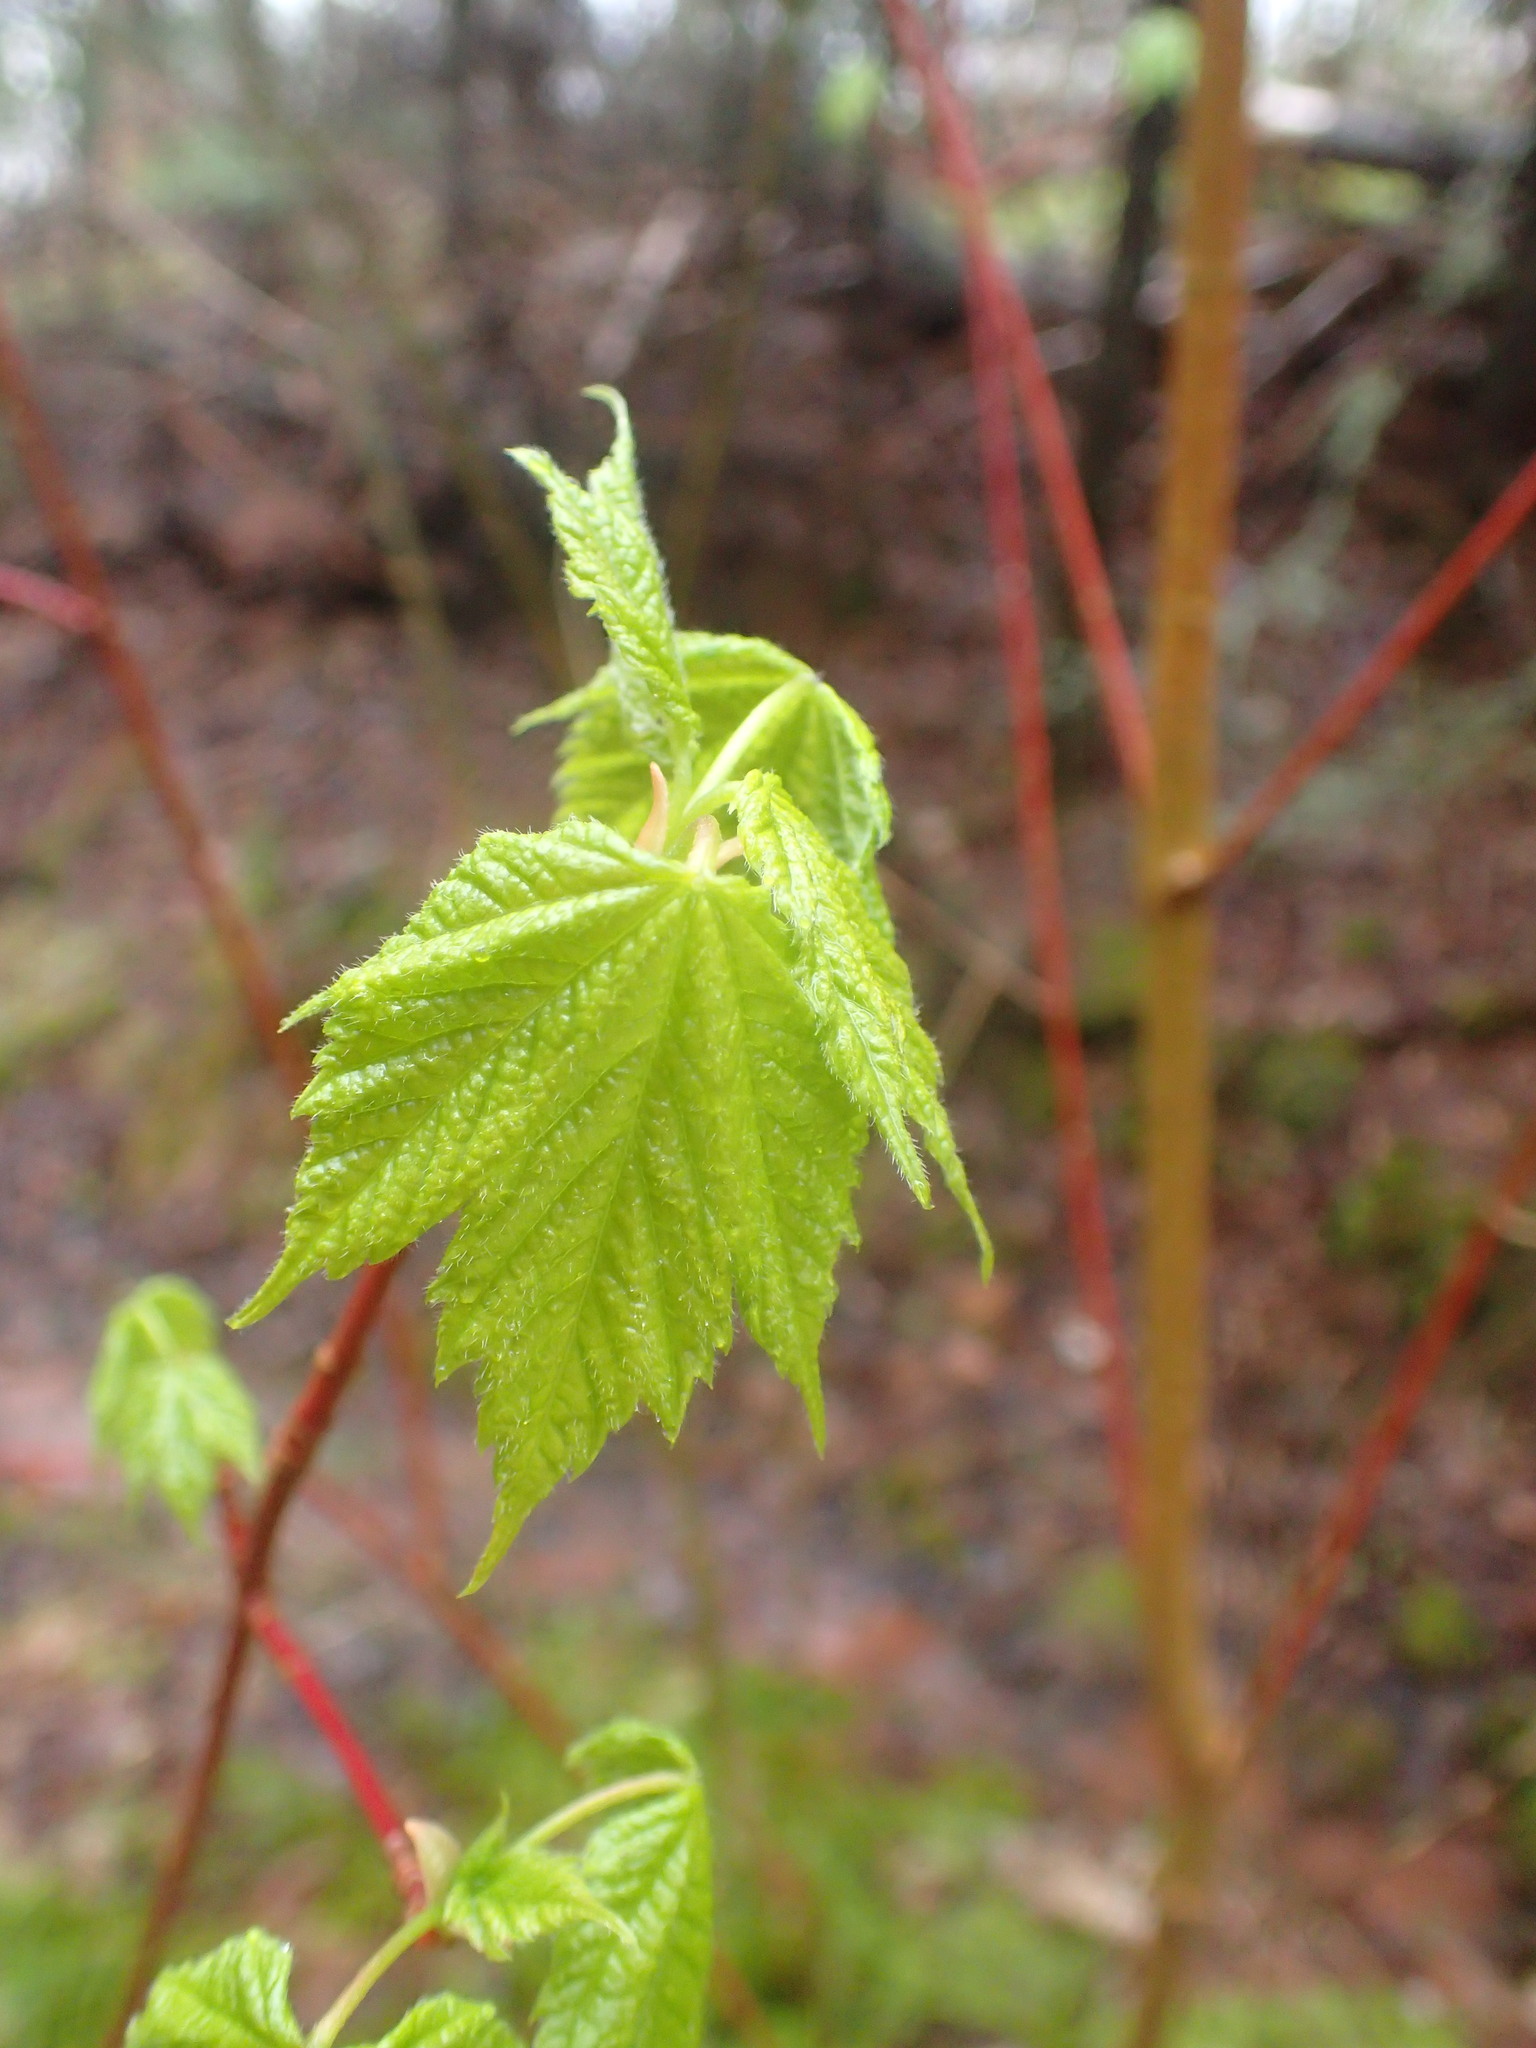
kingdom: Plantae
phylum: Tracheophyta
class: Magnoliopsida
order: Sapindales
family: Sapindaceae
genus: Acer
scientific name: Acer spicatum
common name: Mountain maple
